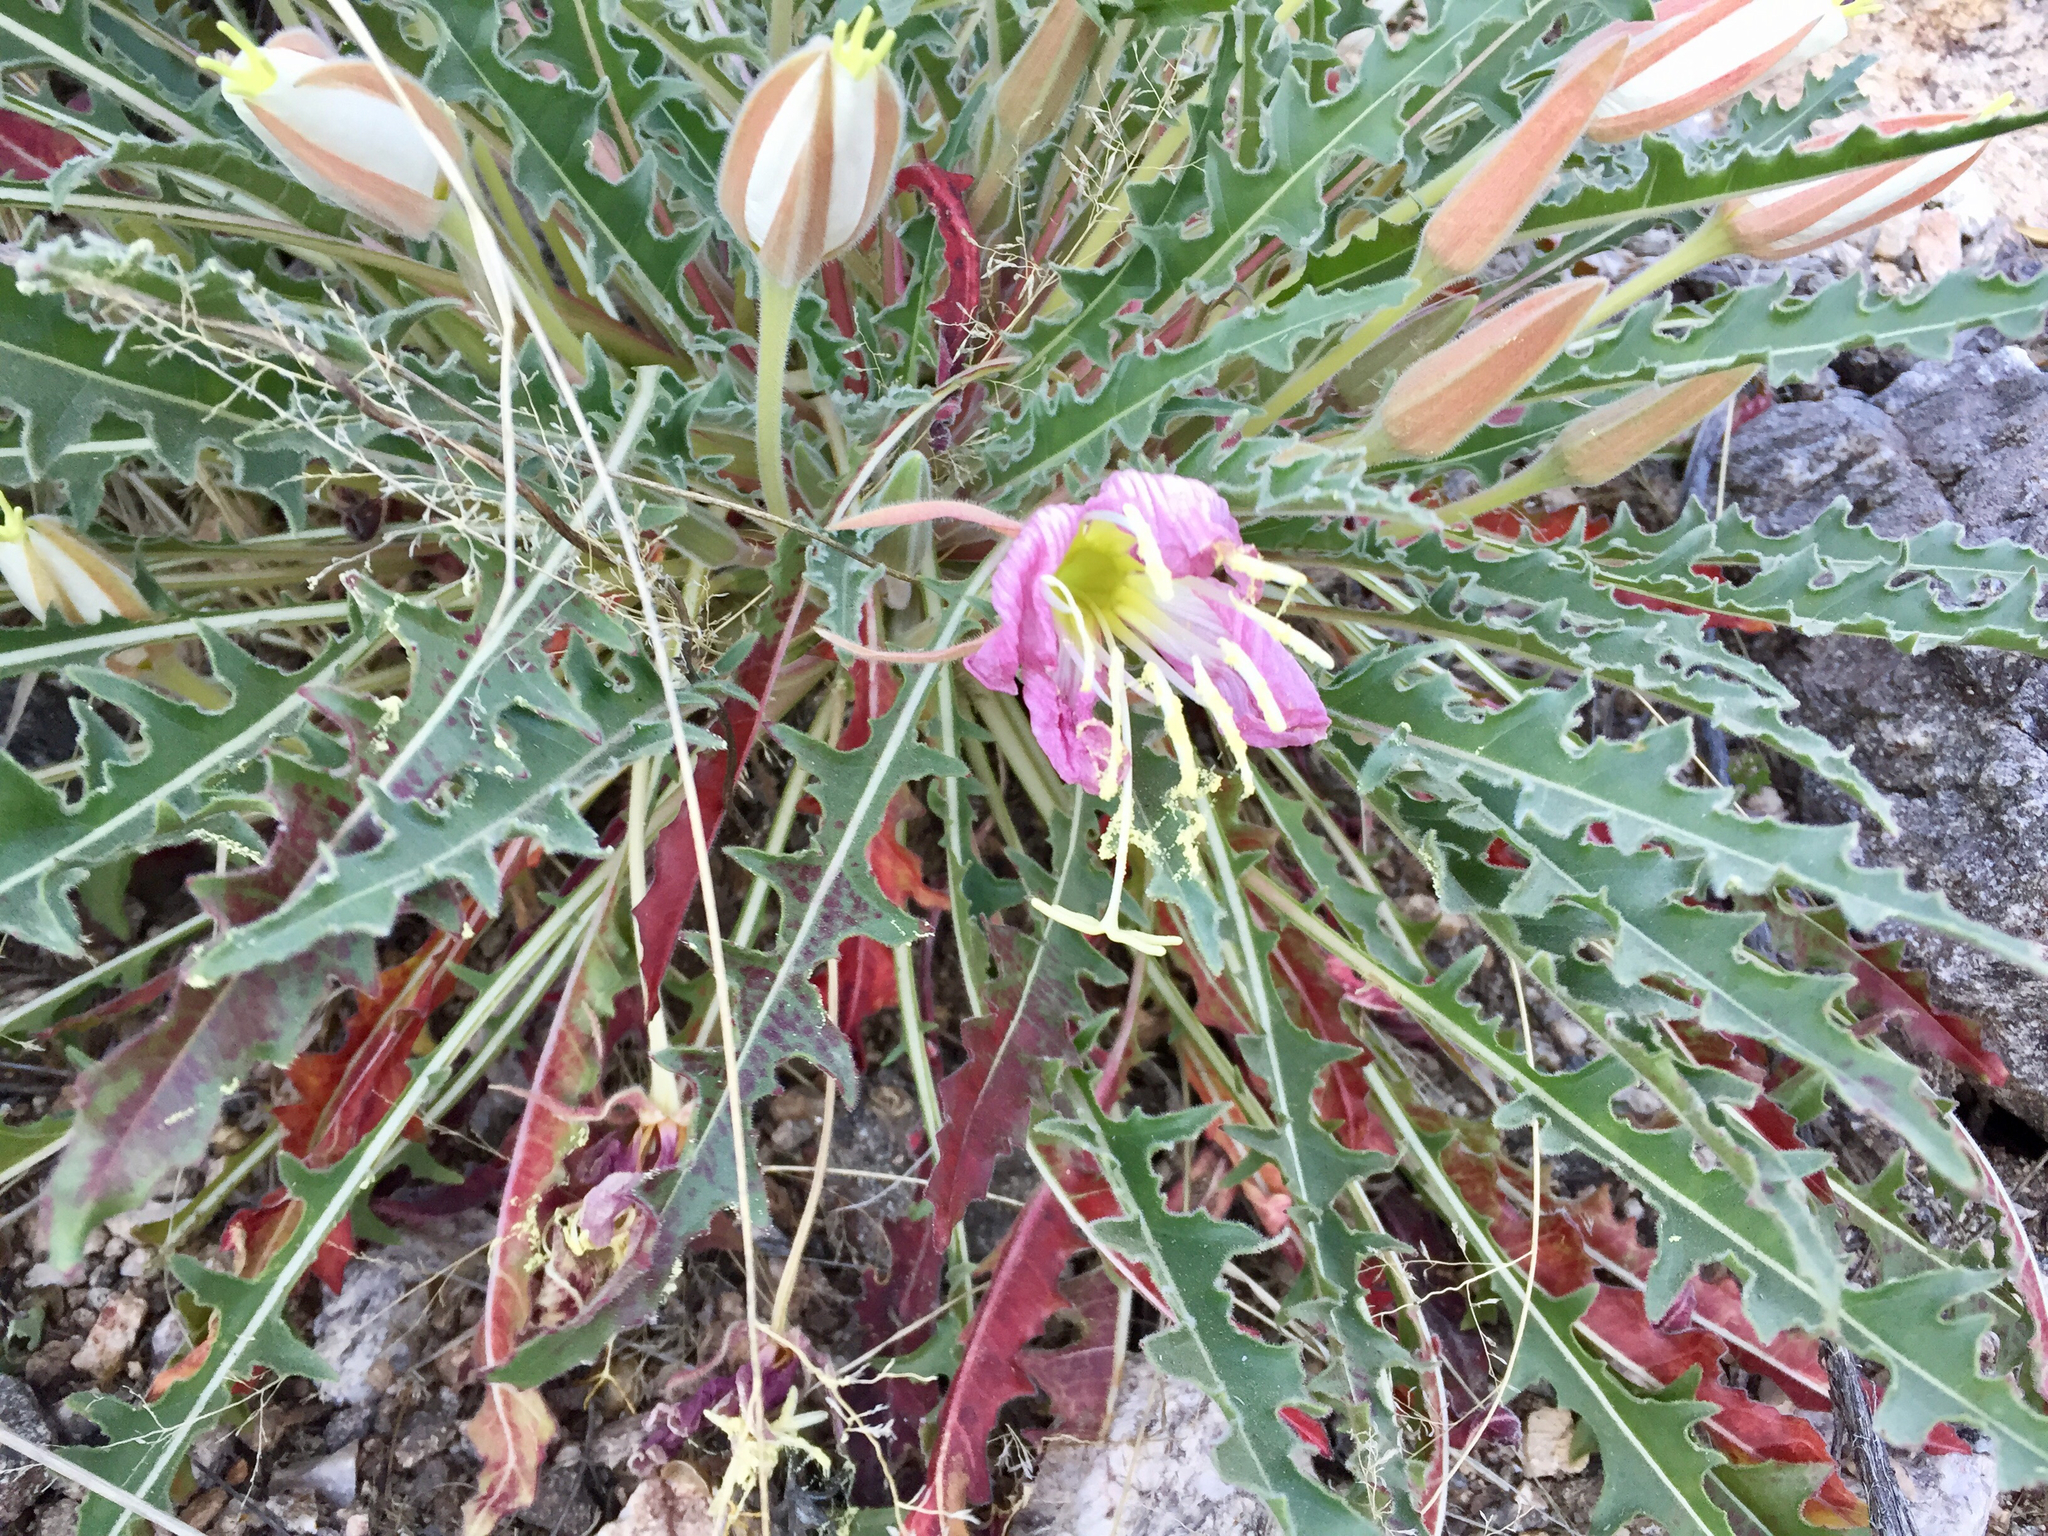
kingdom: Plantae
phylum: Tracheophyta
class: Magnoliopsida
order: Myrtales
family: Onagraceae
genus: Oenothera
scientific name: Oenothera cespitosa
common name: Tufted evening-primrose
